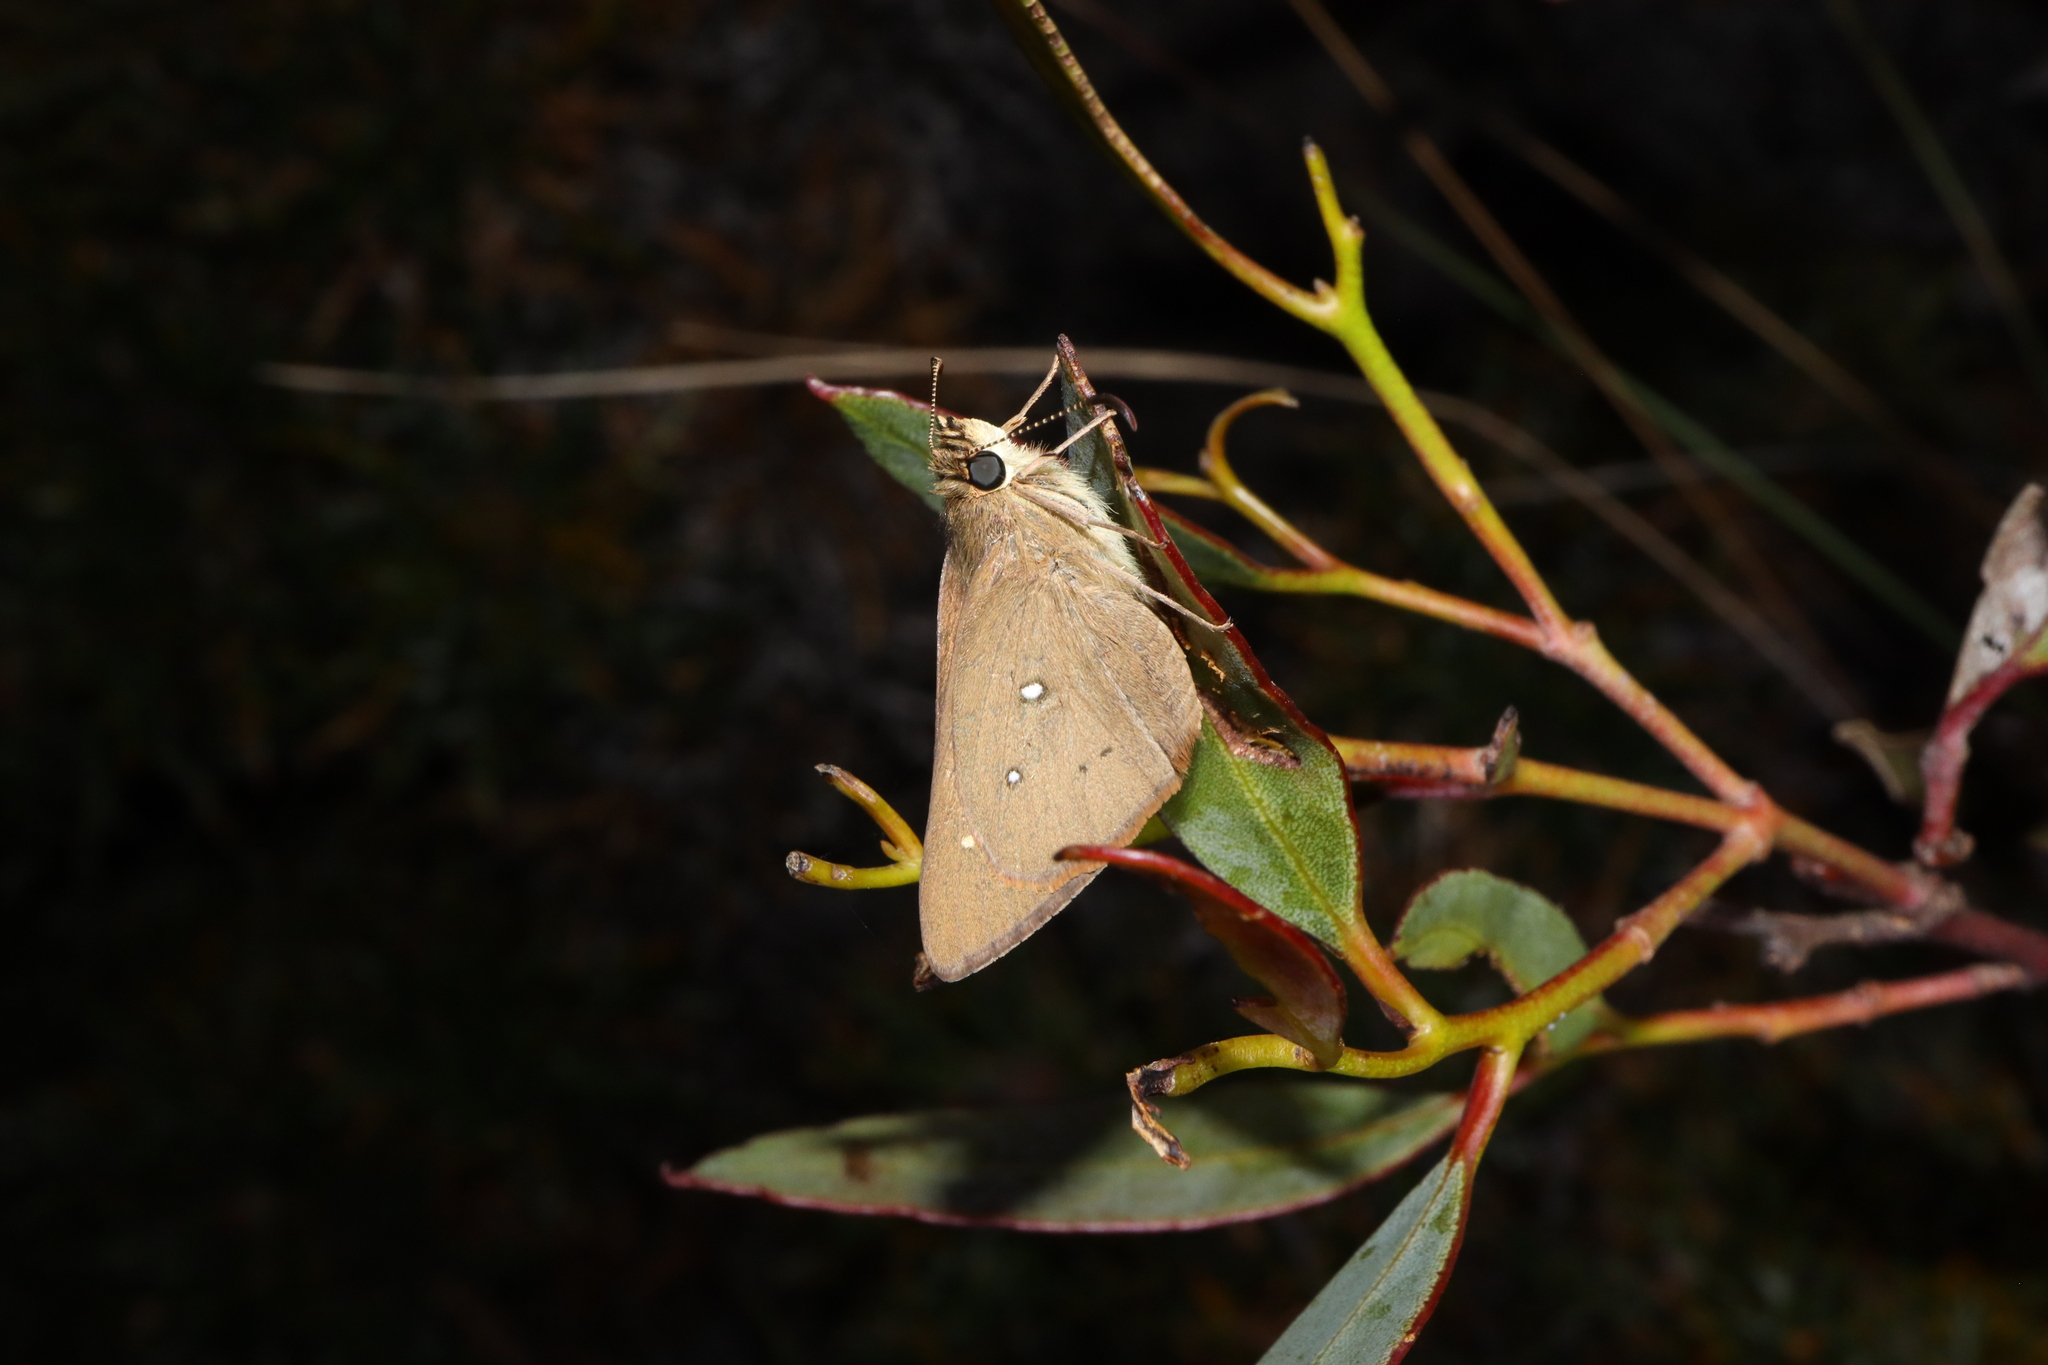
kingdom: Animalia
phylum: Arthropoda
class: Insecta
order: Lepidoptera
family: Hesperiidae
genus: Motasingha
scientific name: Motasingha dirphia
